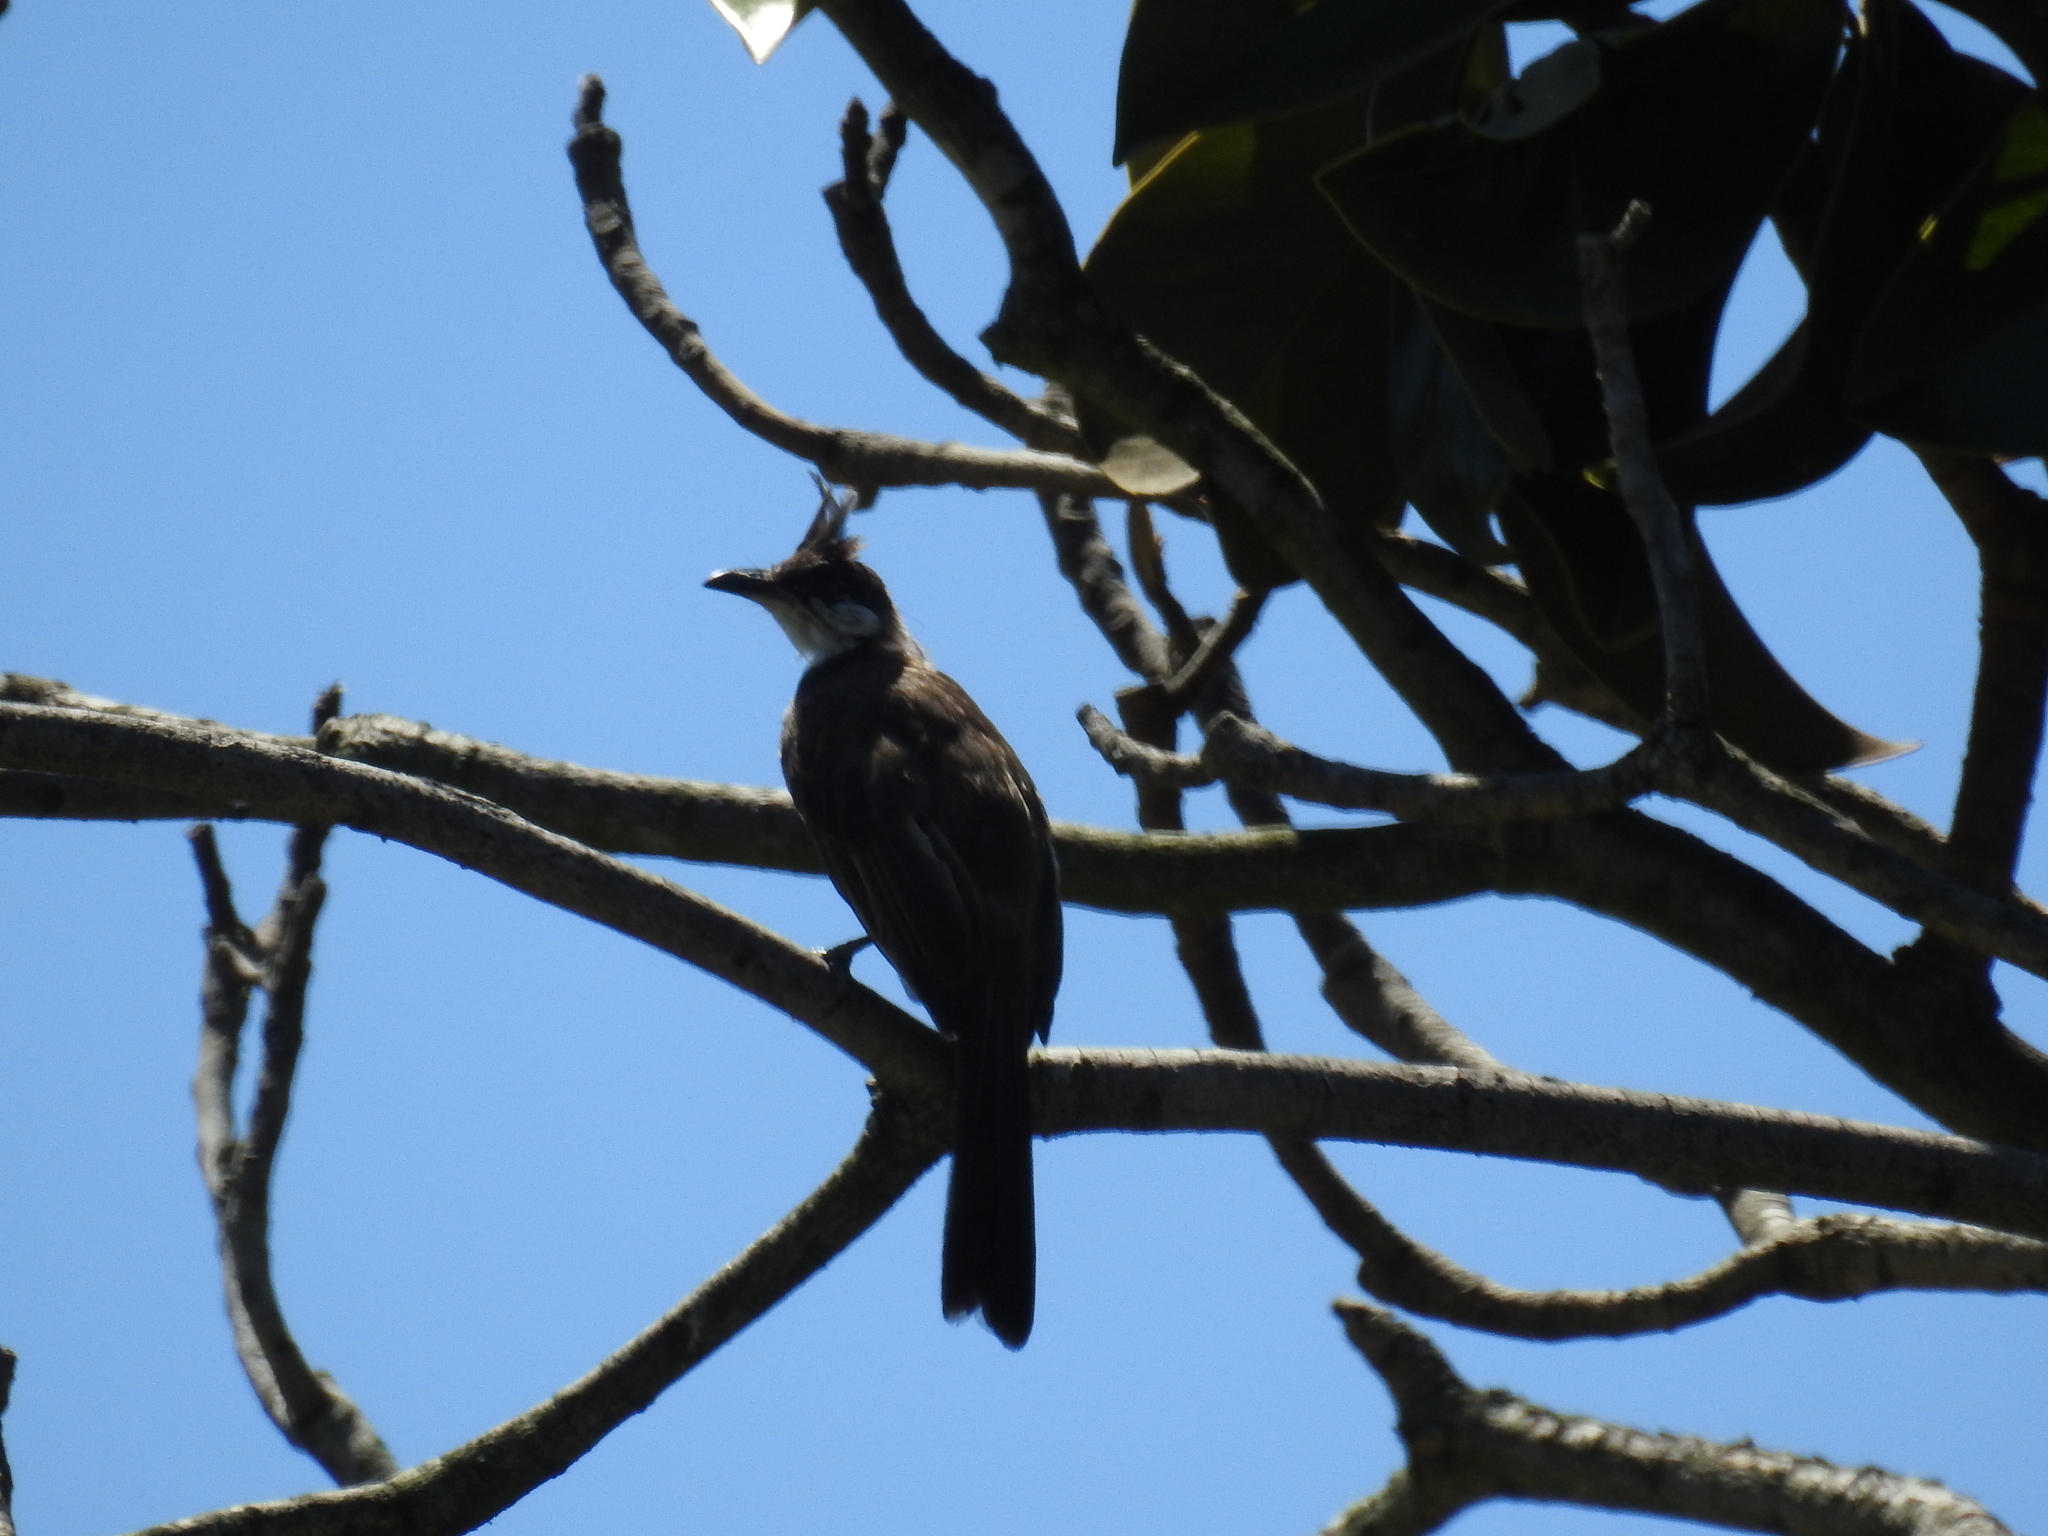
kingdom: Animalia
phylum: Chordata
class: Aves
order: Passeriformes
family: Pycnonotidae
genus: Pycnonotus
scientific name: Pycnonotus jocosus
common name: Red-whiskered bulbul
